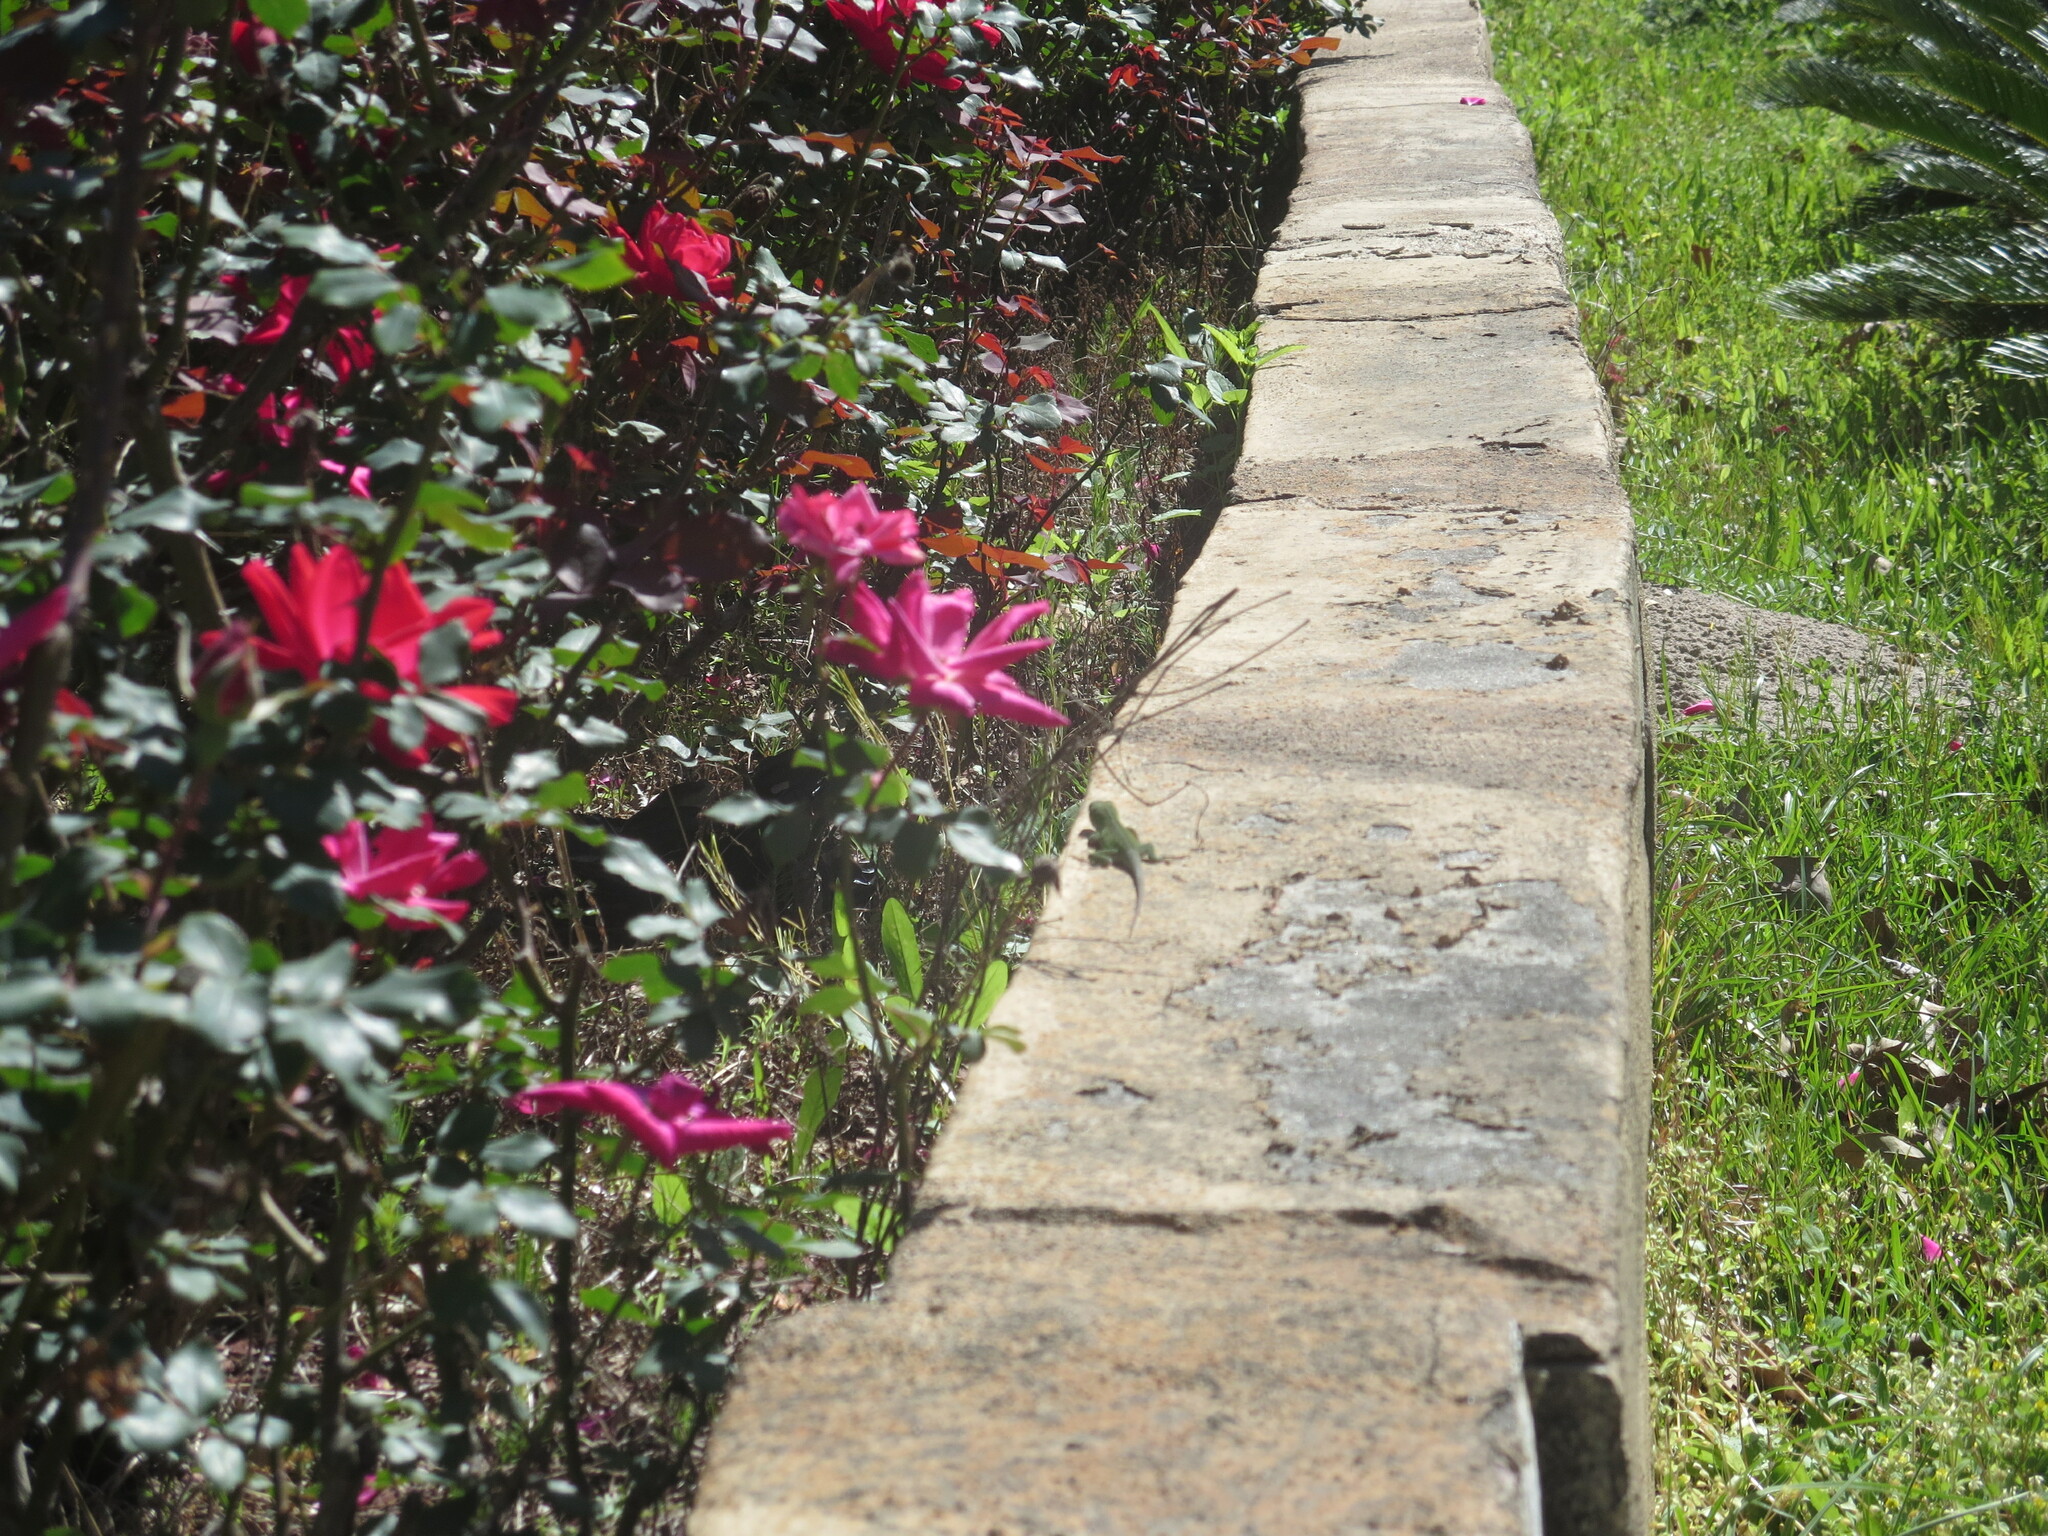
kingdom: Animalia
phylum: Chordata
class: Squamata
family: Dactyloidae
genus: Anolis
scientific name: Anolis carolinensis
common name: Green anole
